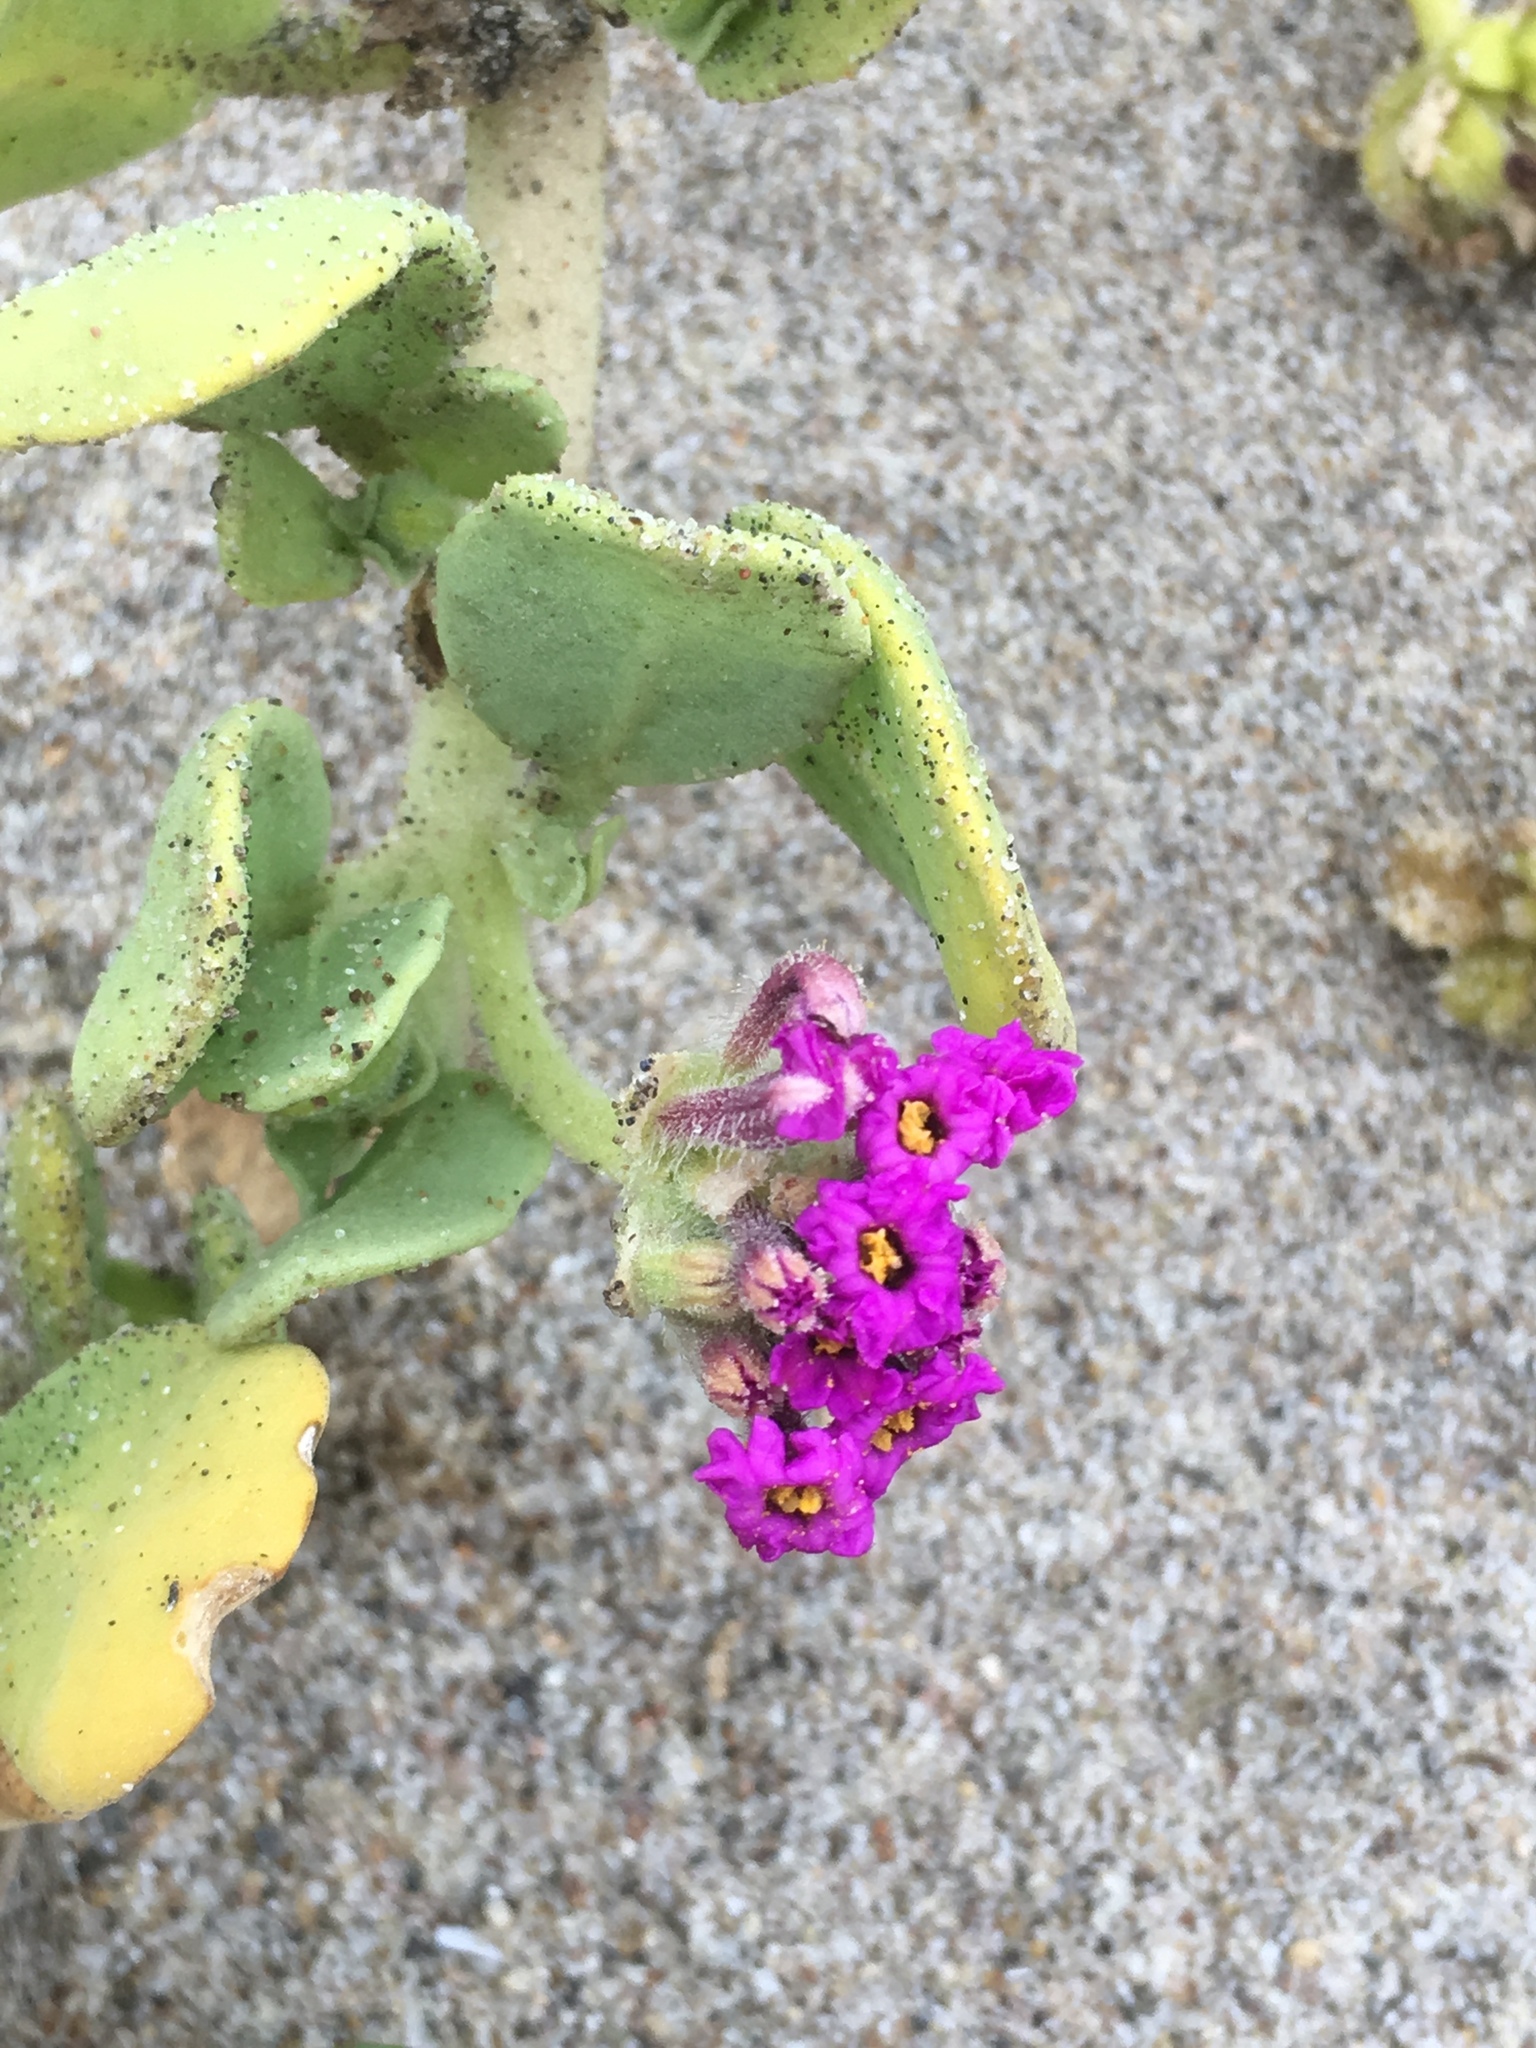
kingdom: Plantae
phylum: Tracheophyta
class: Magnoliopsida
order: Caryophyllales
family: Nyctaginaceae
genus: Abronia
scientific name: Abronia maritima
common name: Red sand-verbena
